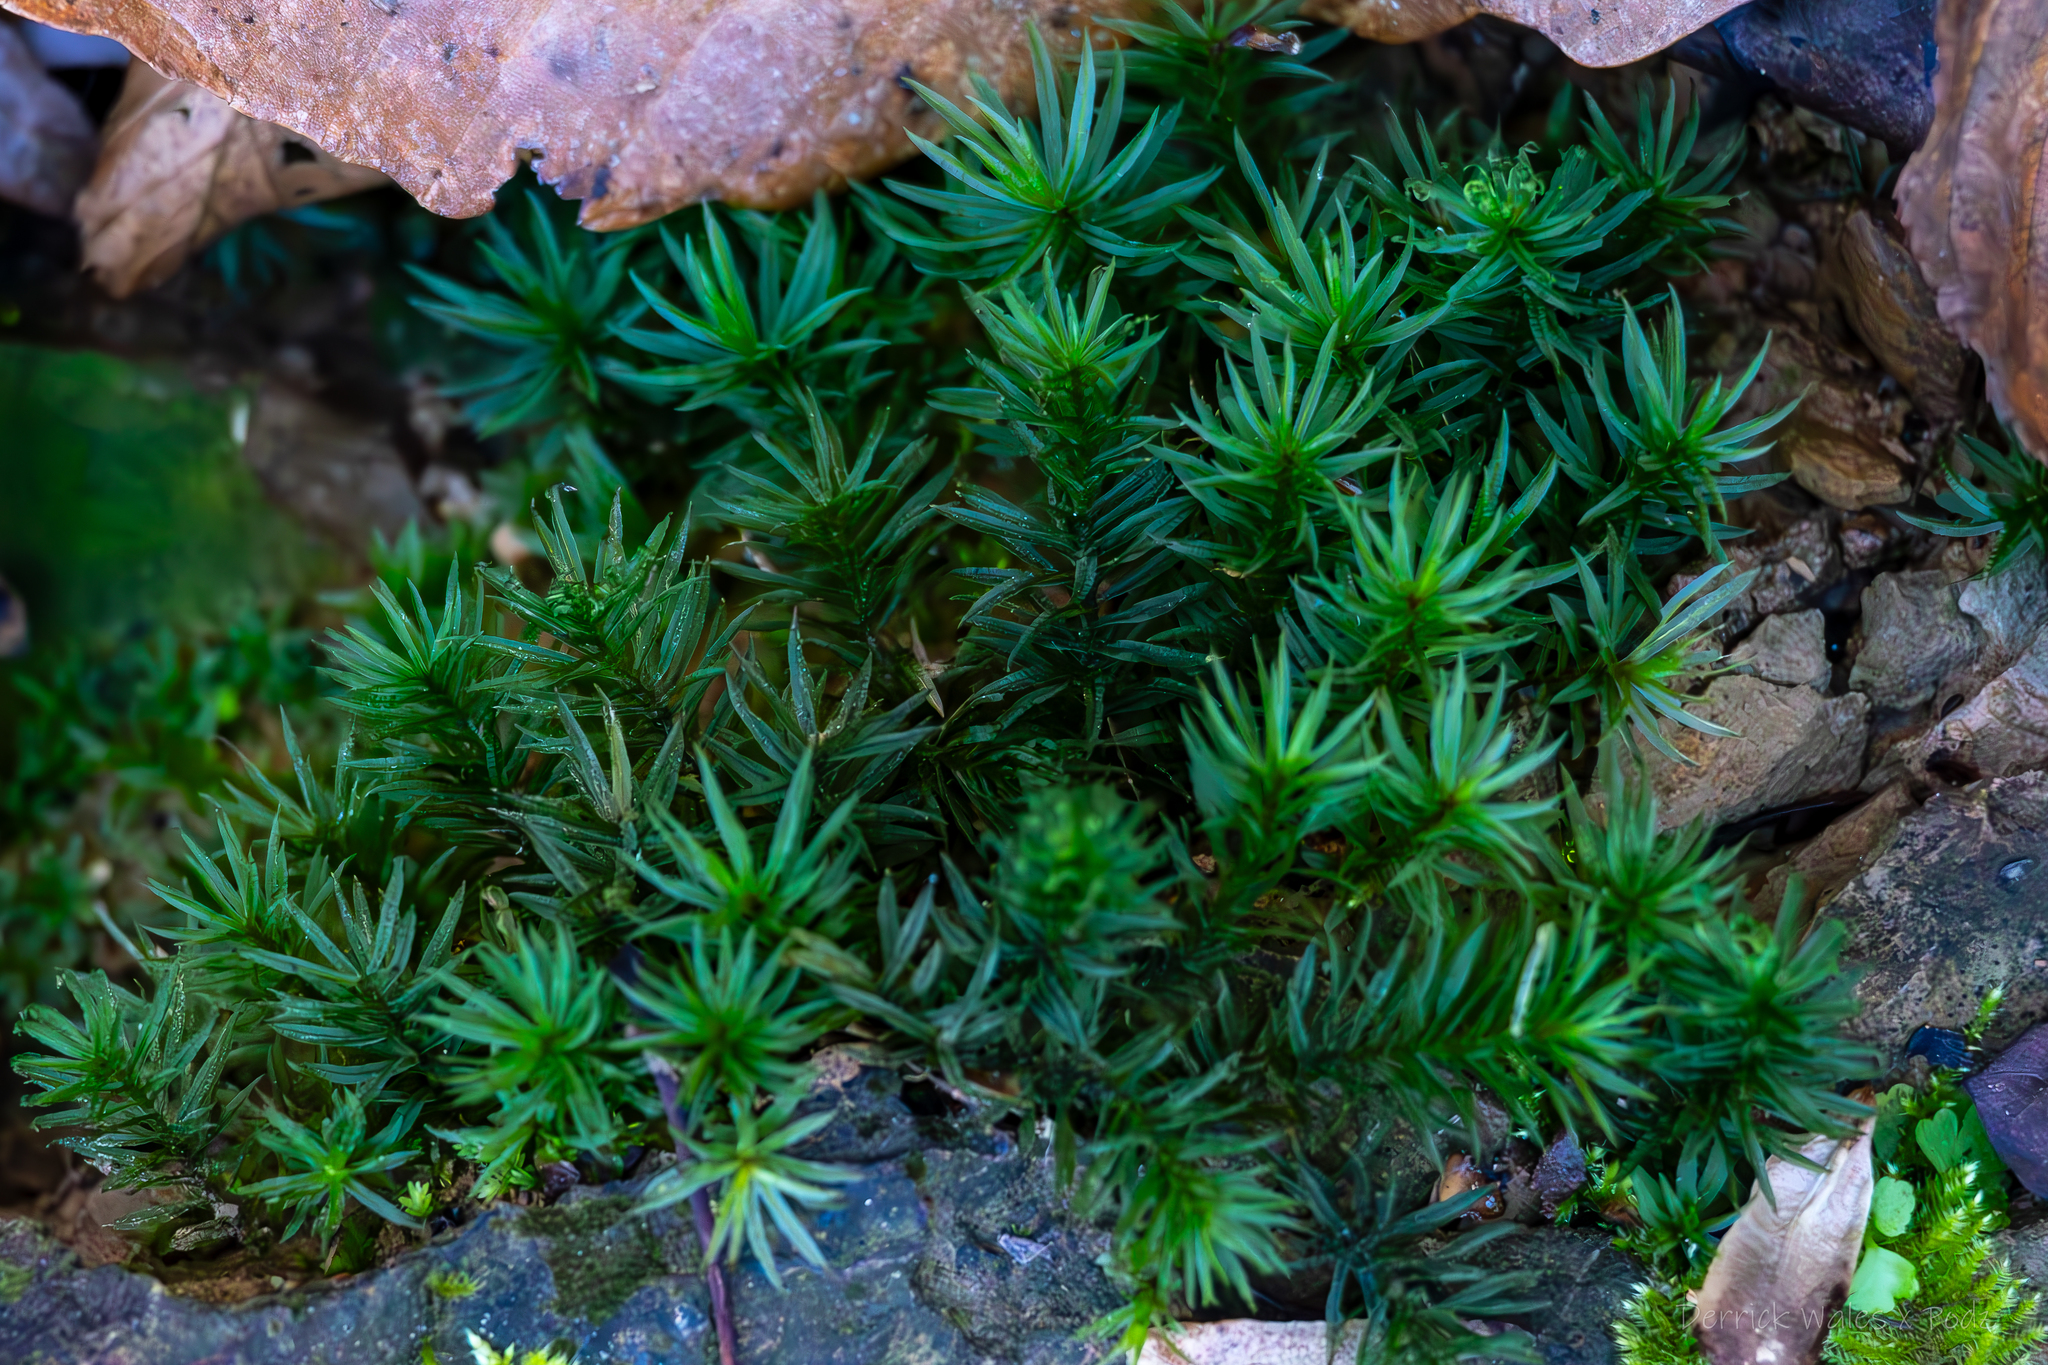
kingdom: Plantae
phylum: Bryophyta
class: Polytrichopsida
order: Polytrichales
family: Polytrichaceae
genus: Atrichum
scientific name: Atrichum cylindricum
